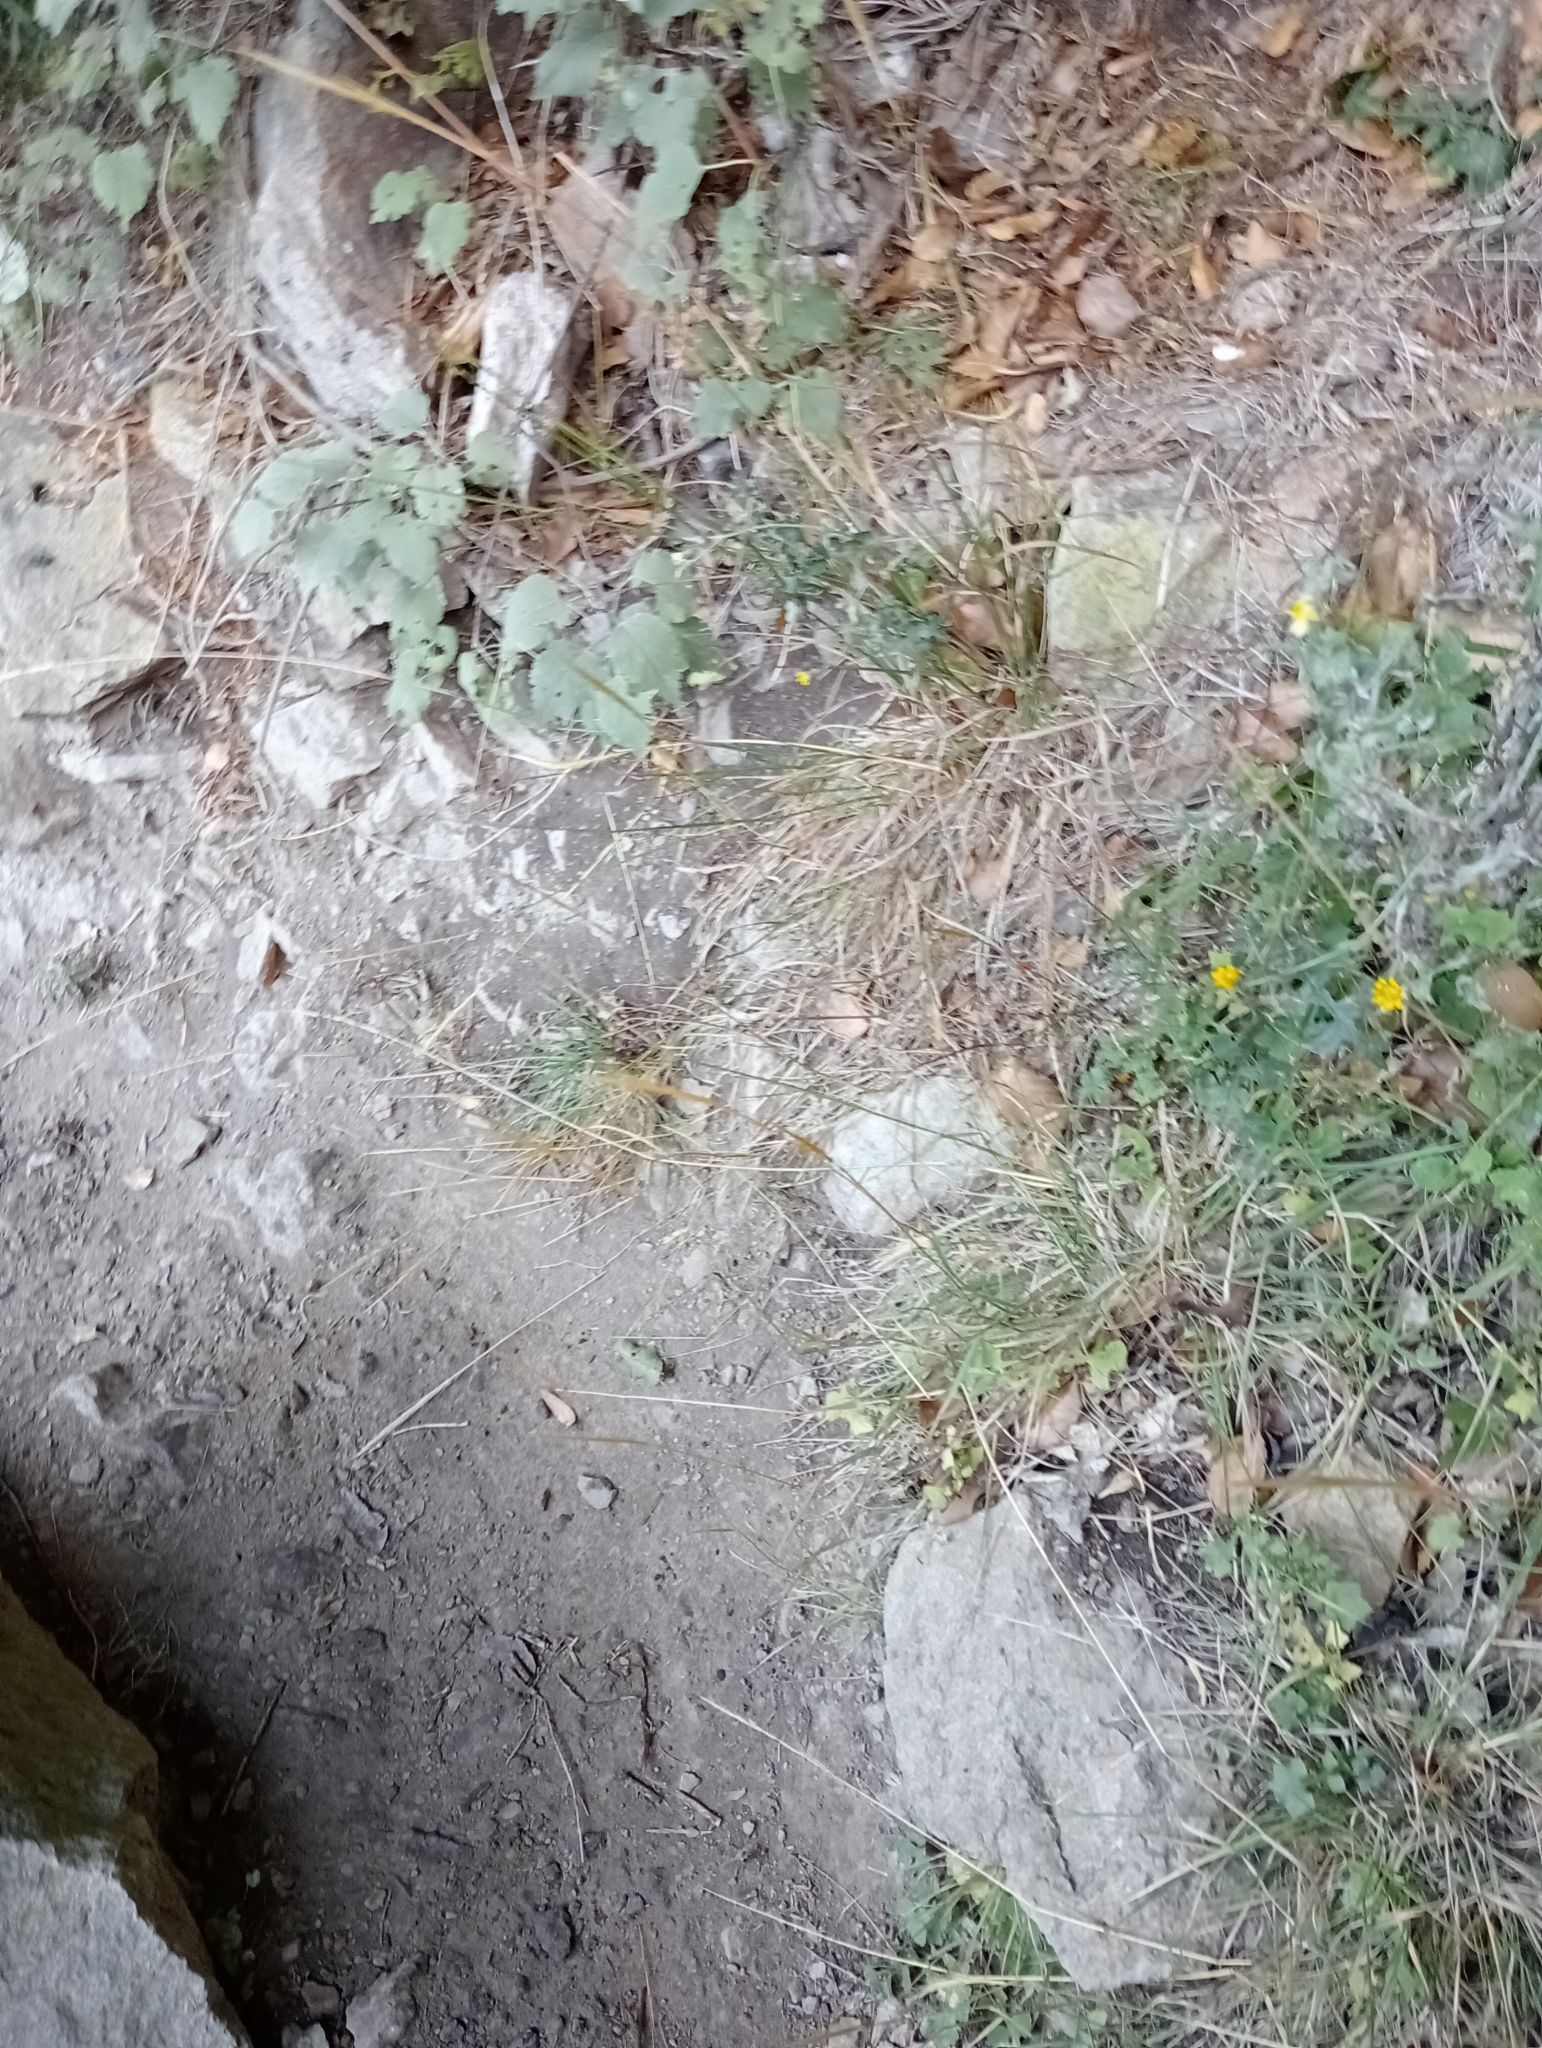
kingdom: Plantae
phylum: Tracheophyta
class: Liliopsida
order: Poales
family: Poaceae
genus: Dichelachne
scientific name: Dichelachne crinita
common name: Clovenfoot plumegrass
